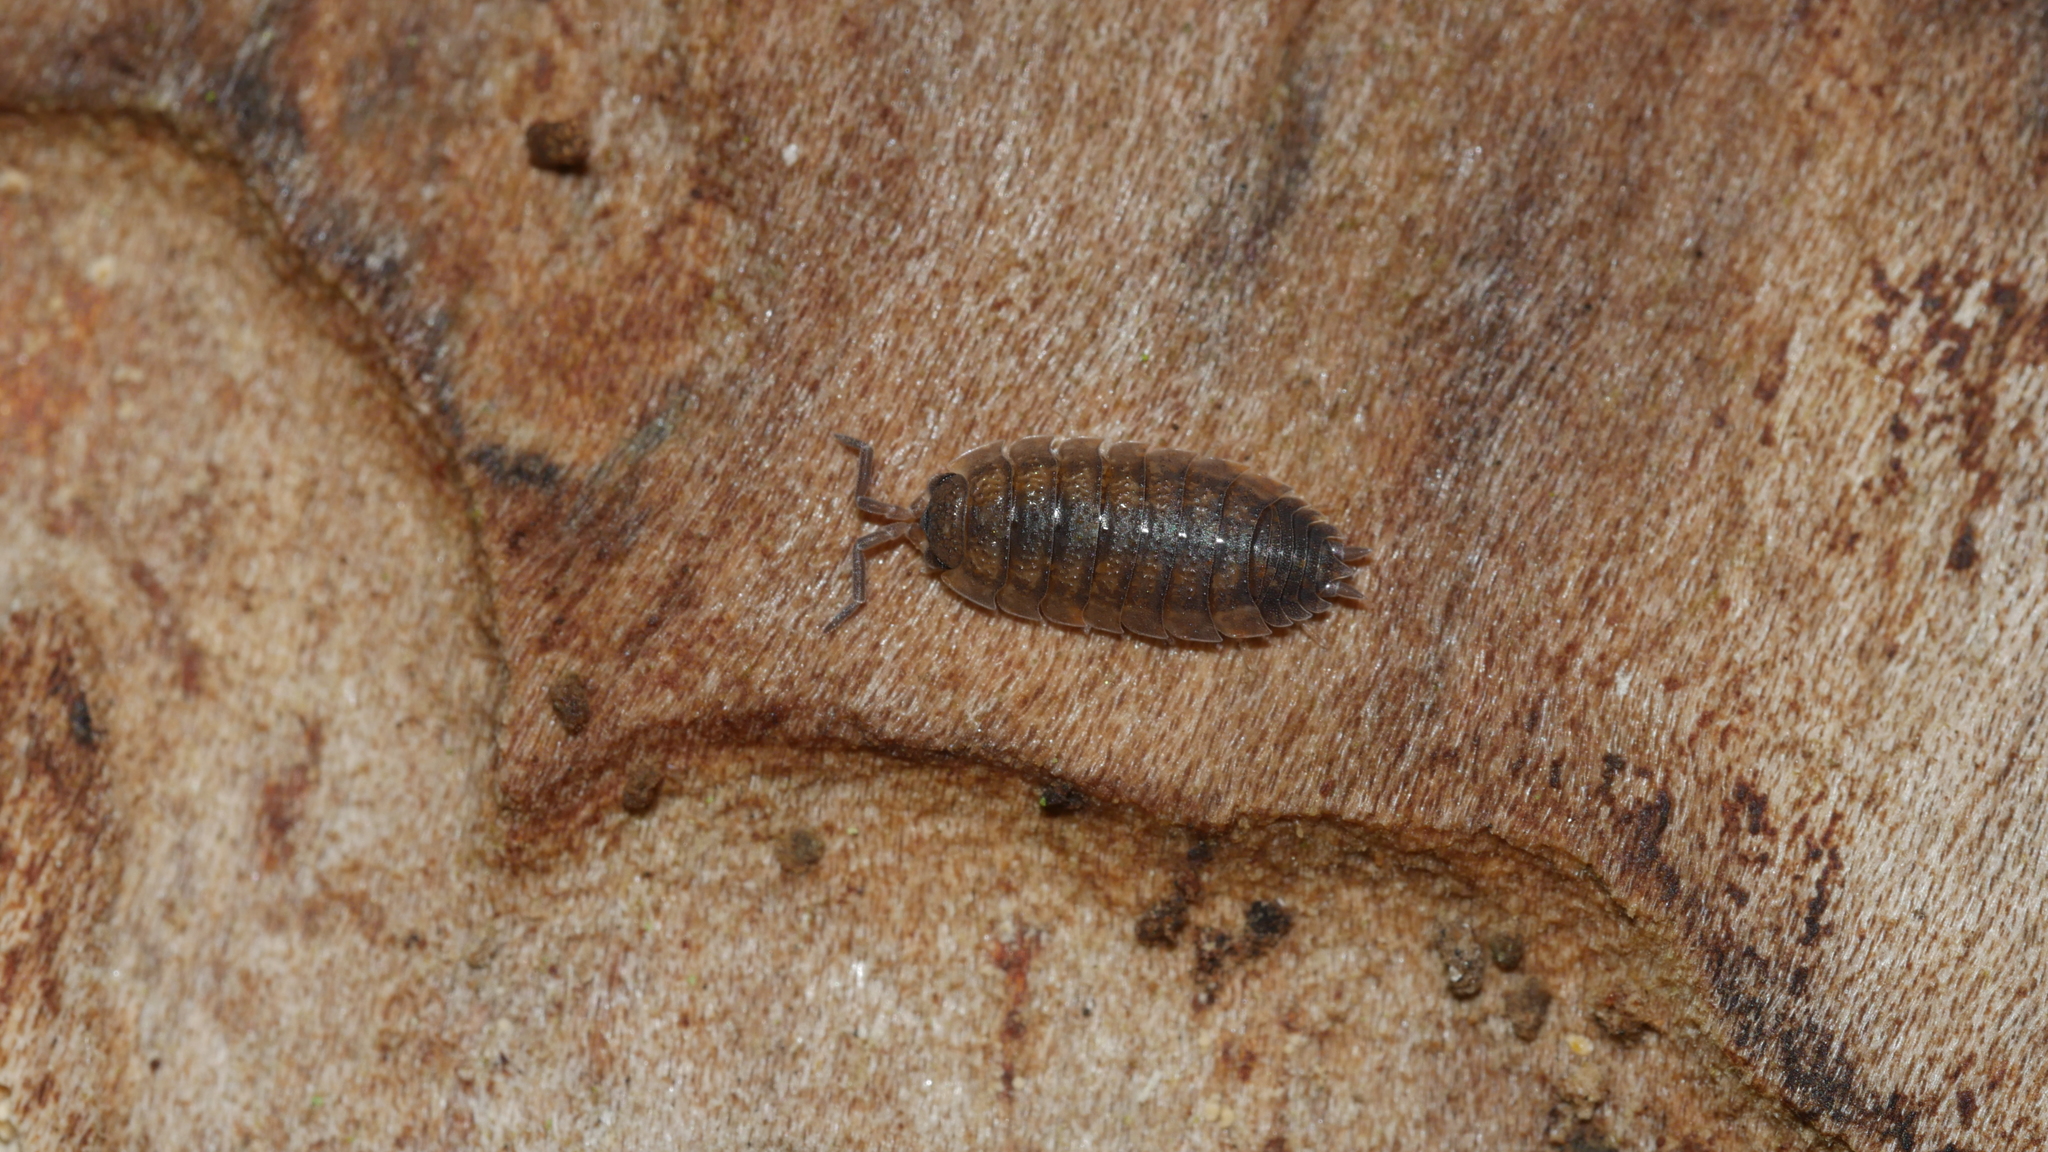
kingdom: Animalia
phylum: Arthropoda
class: Malacostraca
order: Isopoda
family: Porcellionidae
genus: Porcellio
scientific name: Porcellio scaber
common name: Common rough woodlouse
